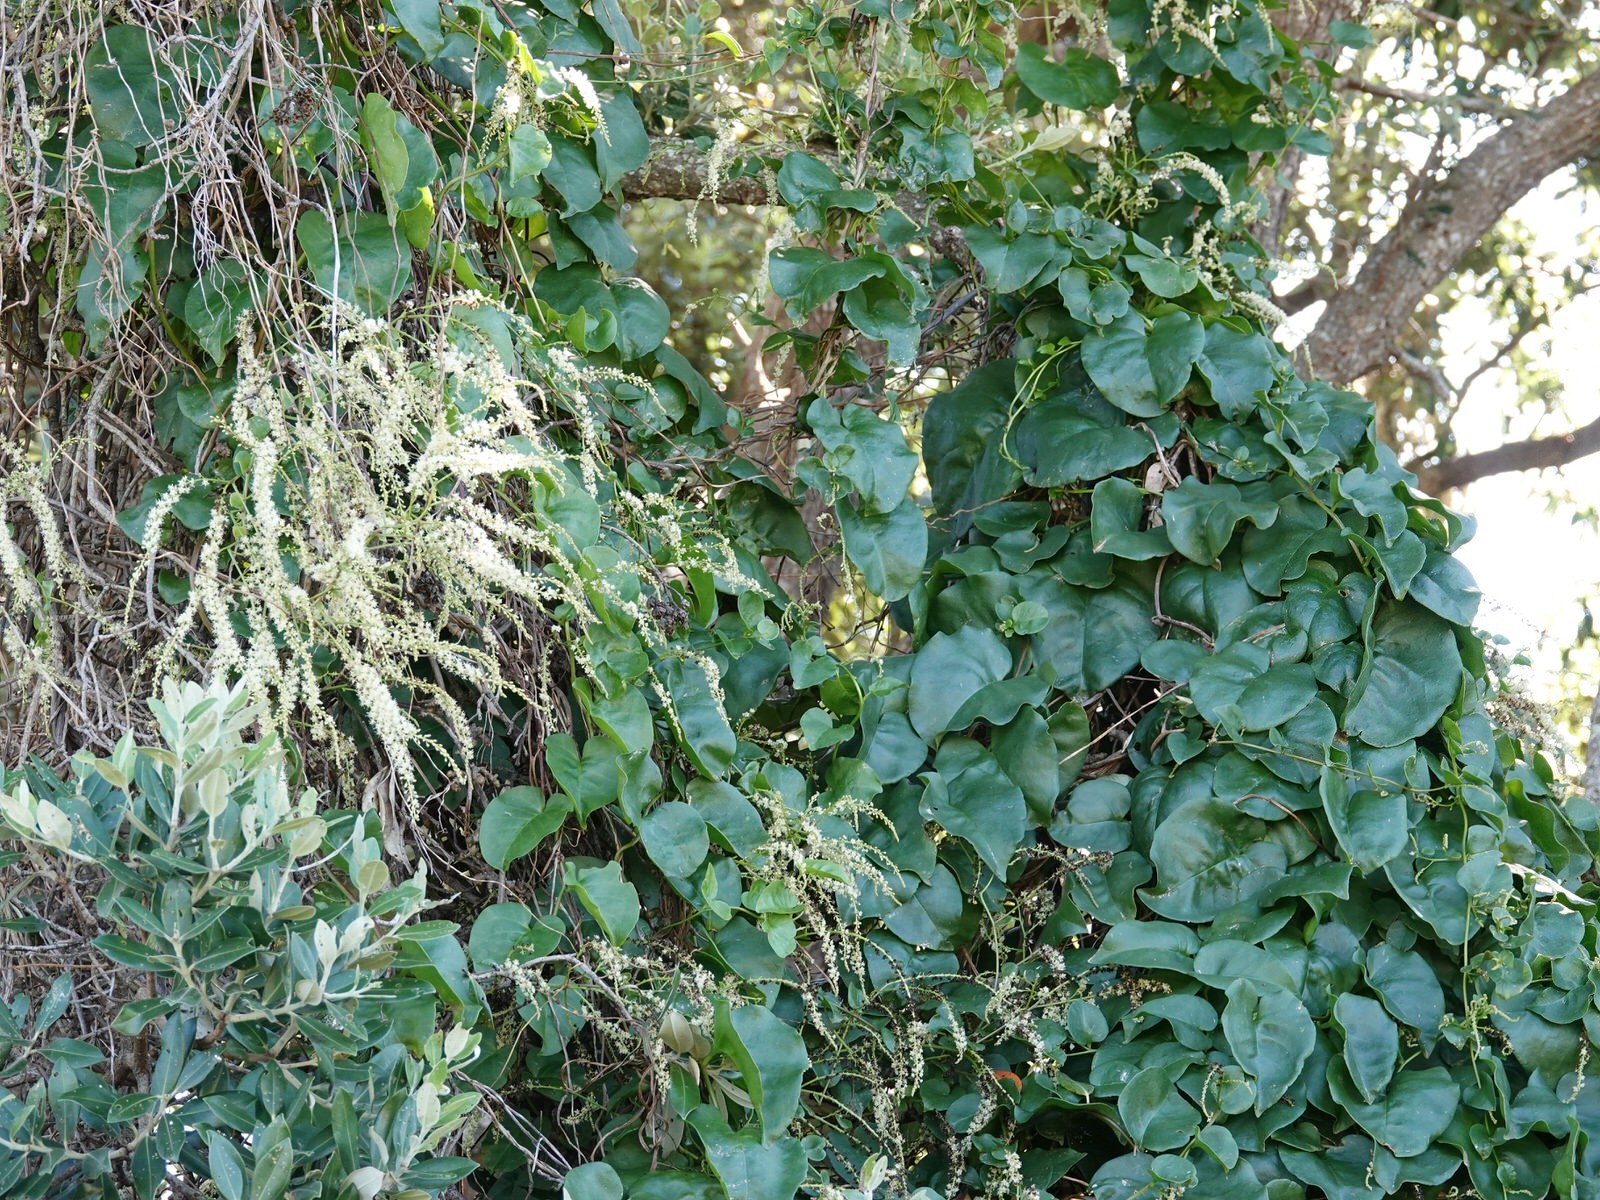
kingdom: Plantae
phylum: Tracheophyta
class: Magnoliopsida
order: Caryophyllales
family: Basellaceae
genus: Anredera
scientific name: Anredera cordifolia
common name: Heartleaf madeiravine
